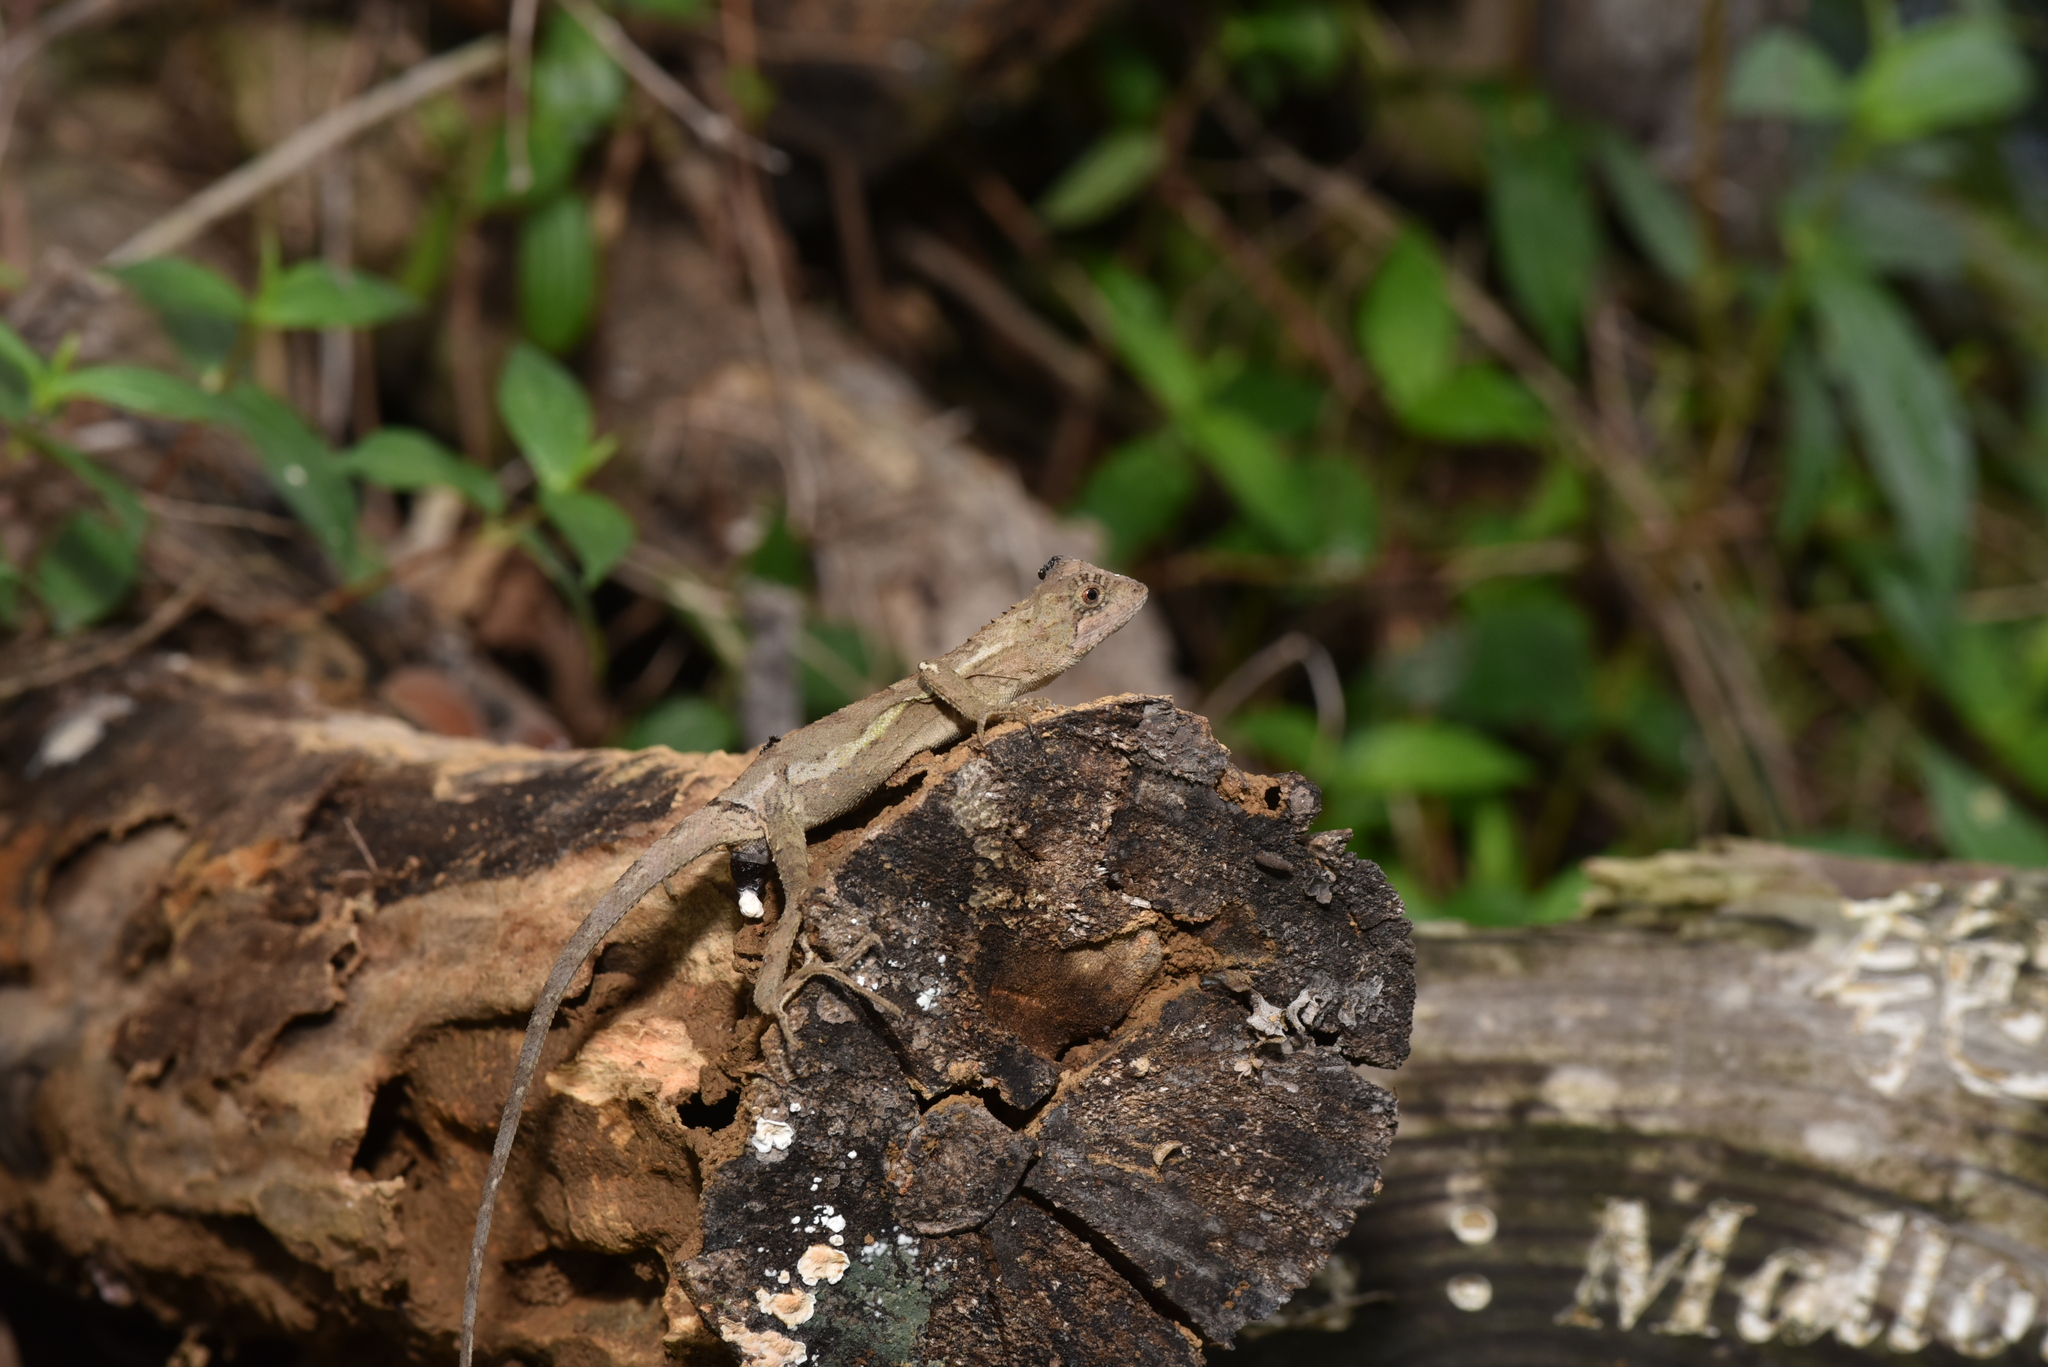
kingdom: Animalia
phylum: Chordata
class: Squamata
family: Agamidae
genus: Diploderma
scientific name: Diploderma swinhonis
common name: Taiwan japalure
